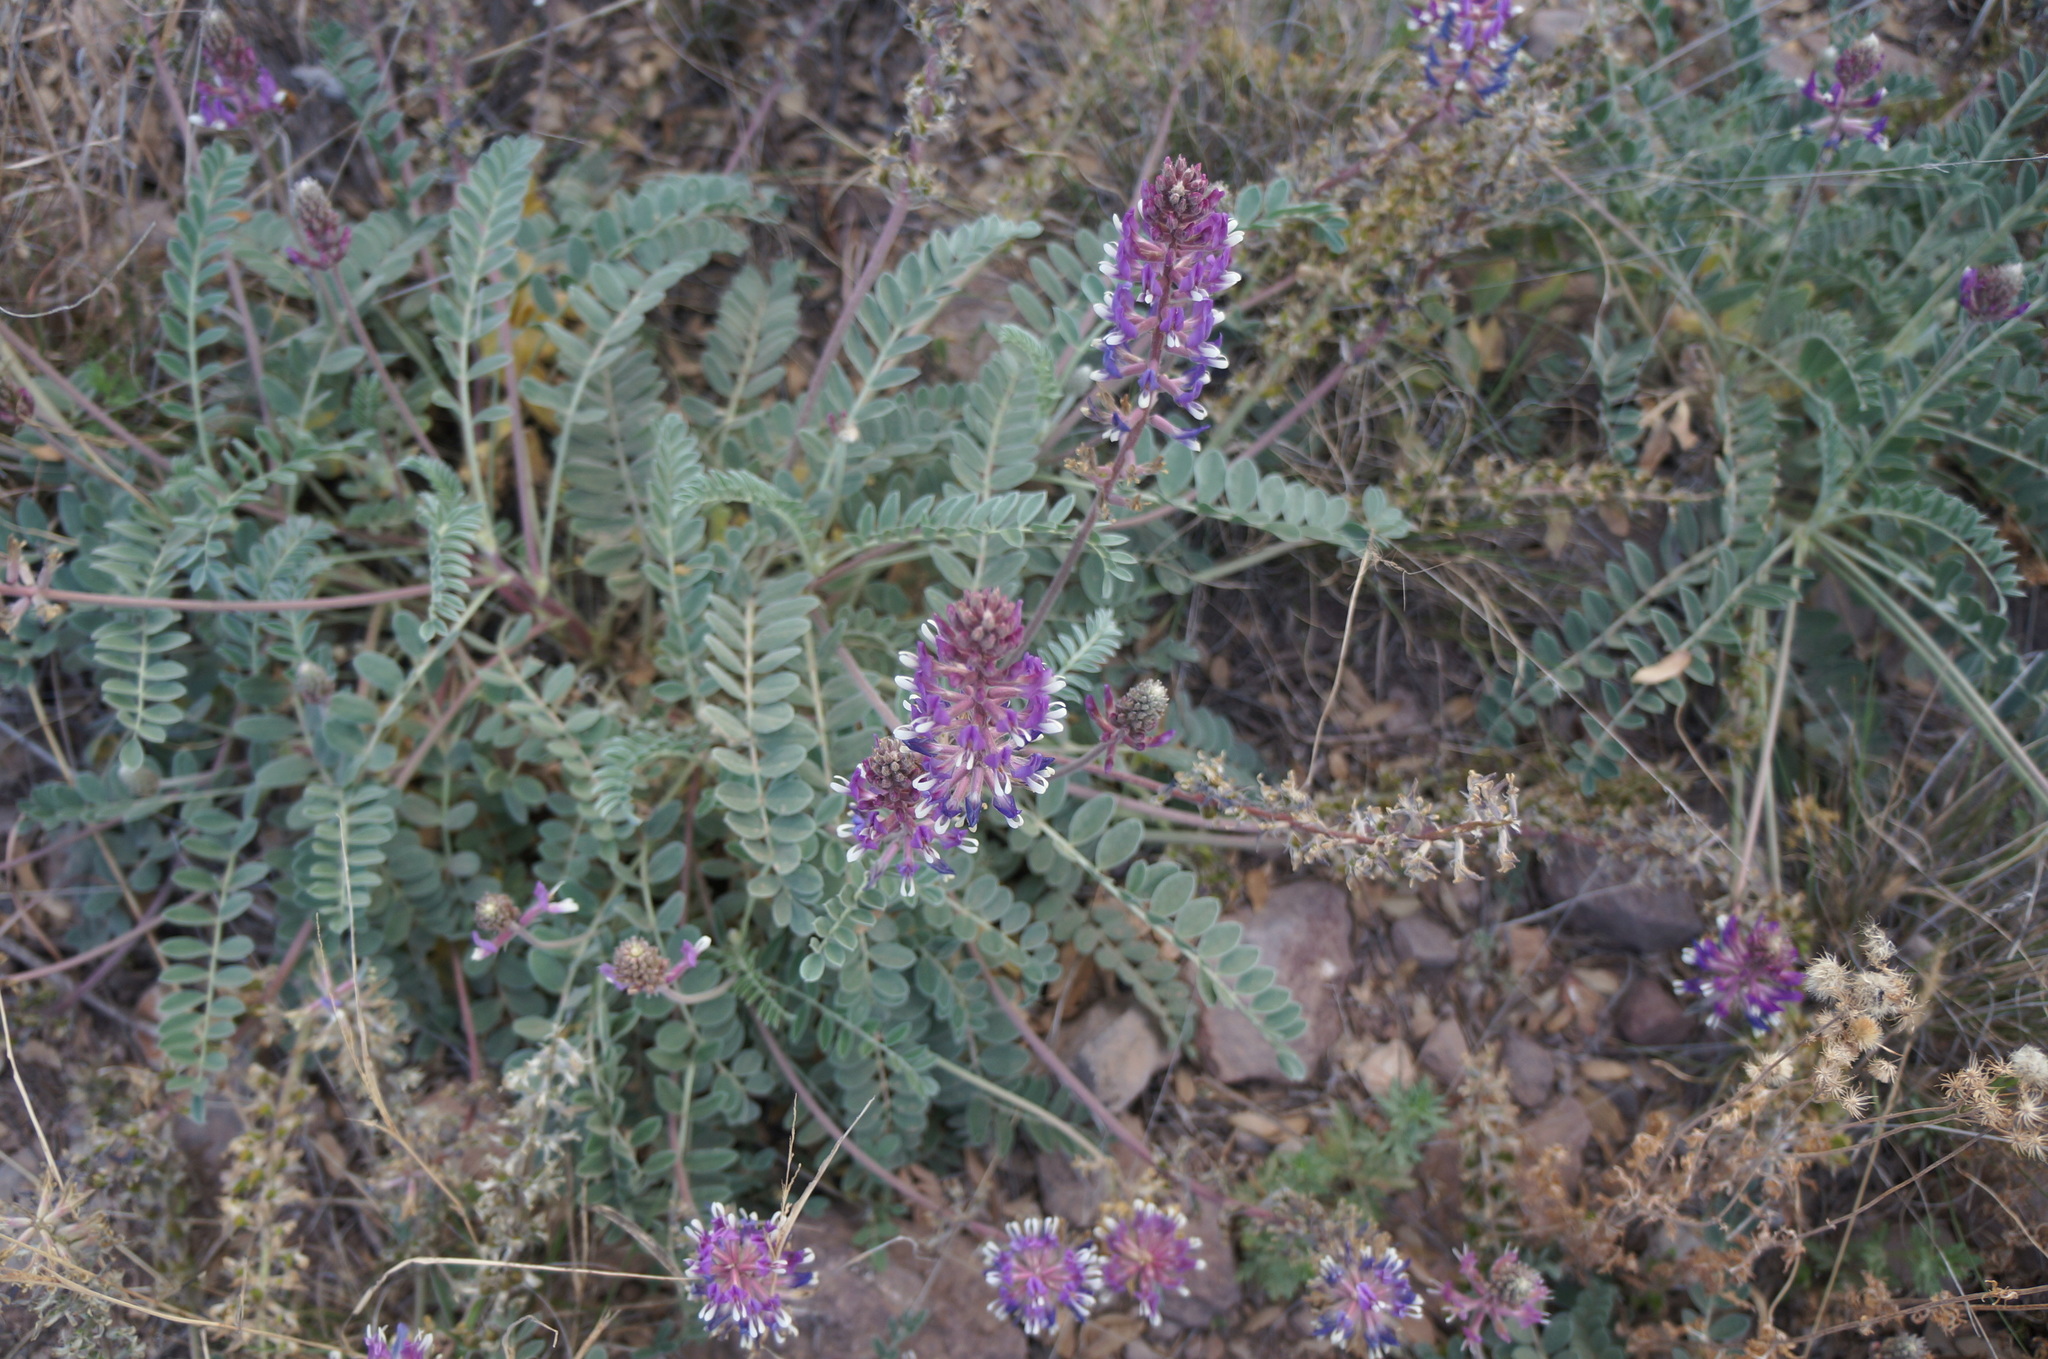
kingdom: Plantae
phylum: Tracheophyta
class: Magnoliopsida
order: Fabales
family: Fabaceae
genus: Astragalus
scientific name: Astragalus mollissimus
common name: Woolly locoweed
